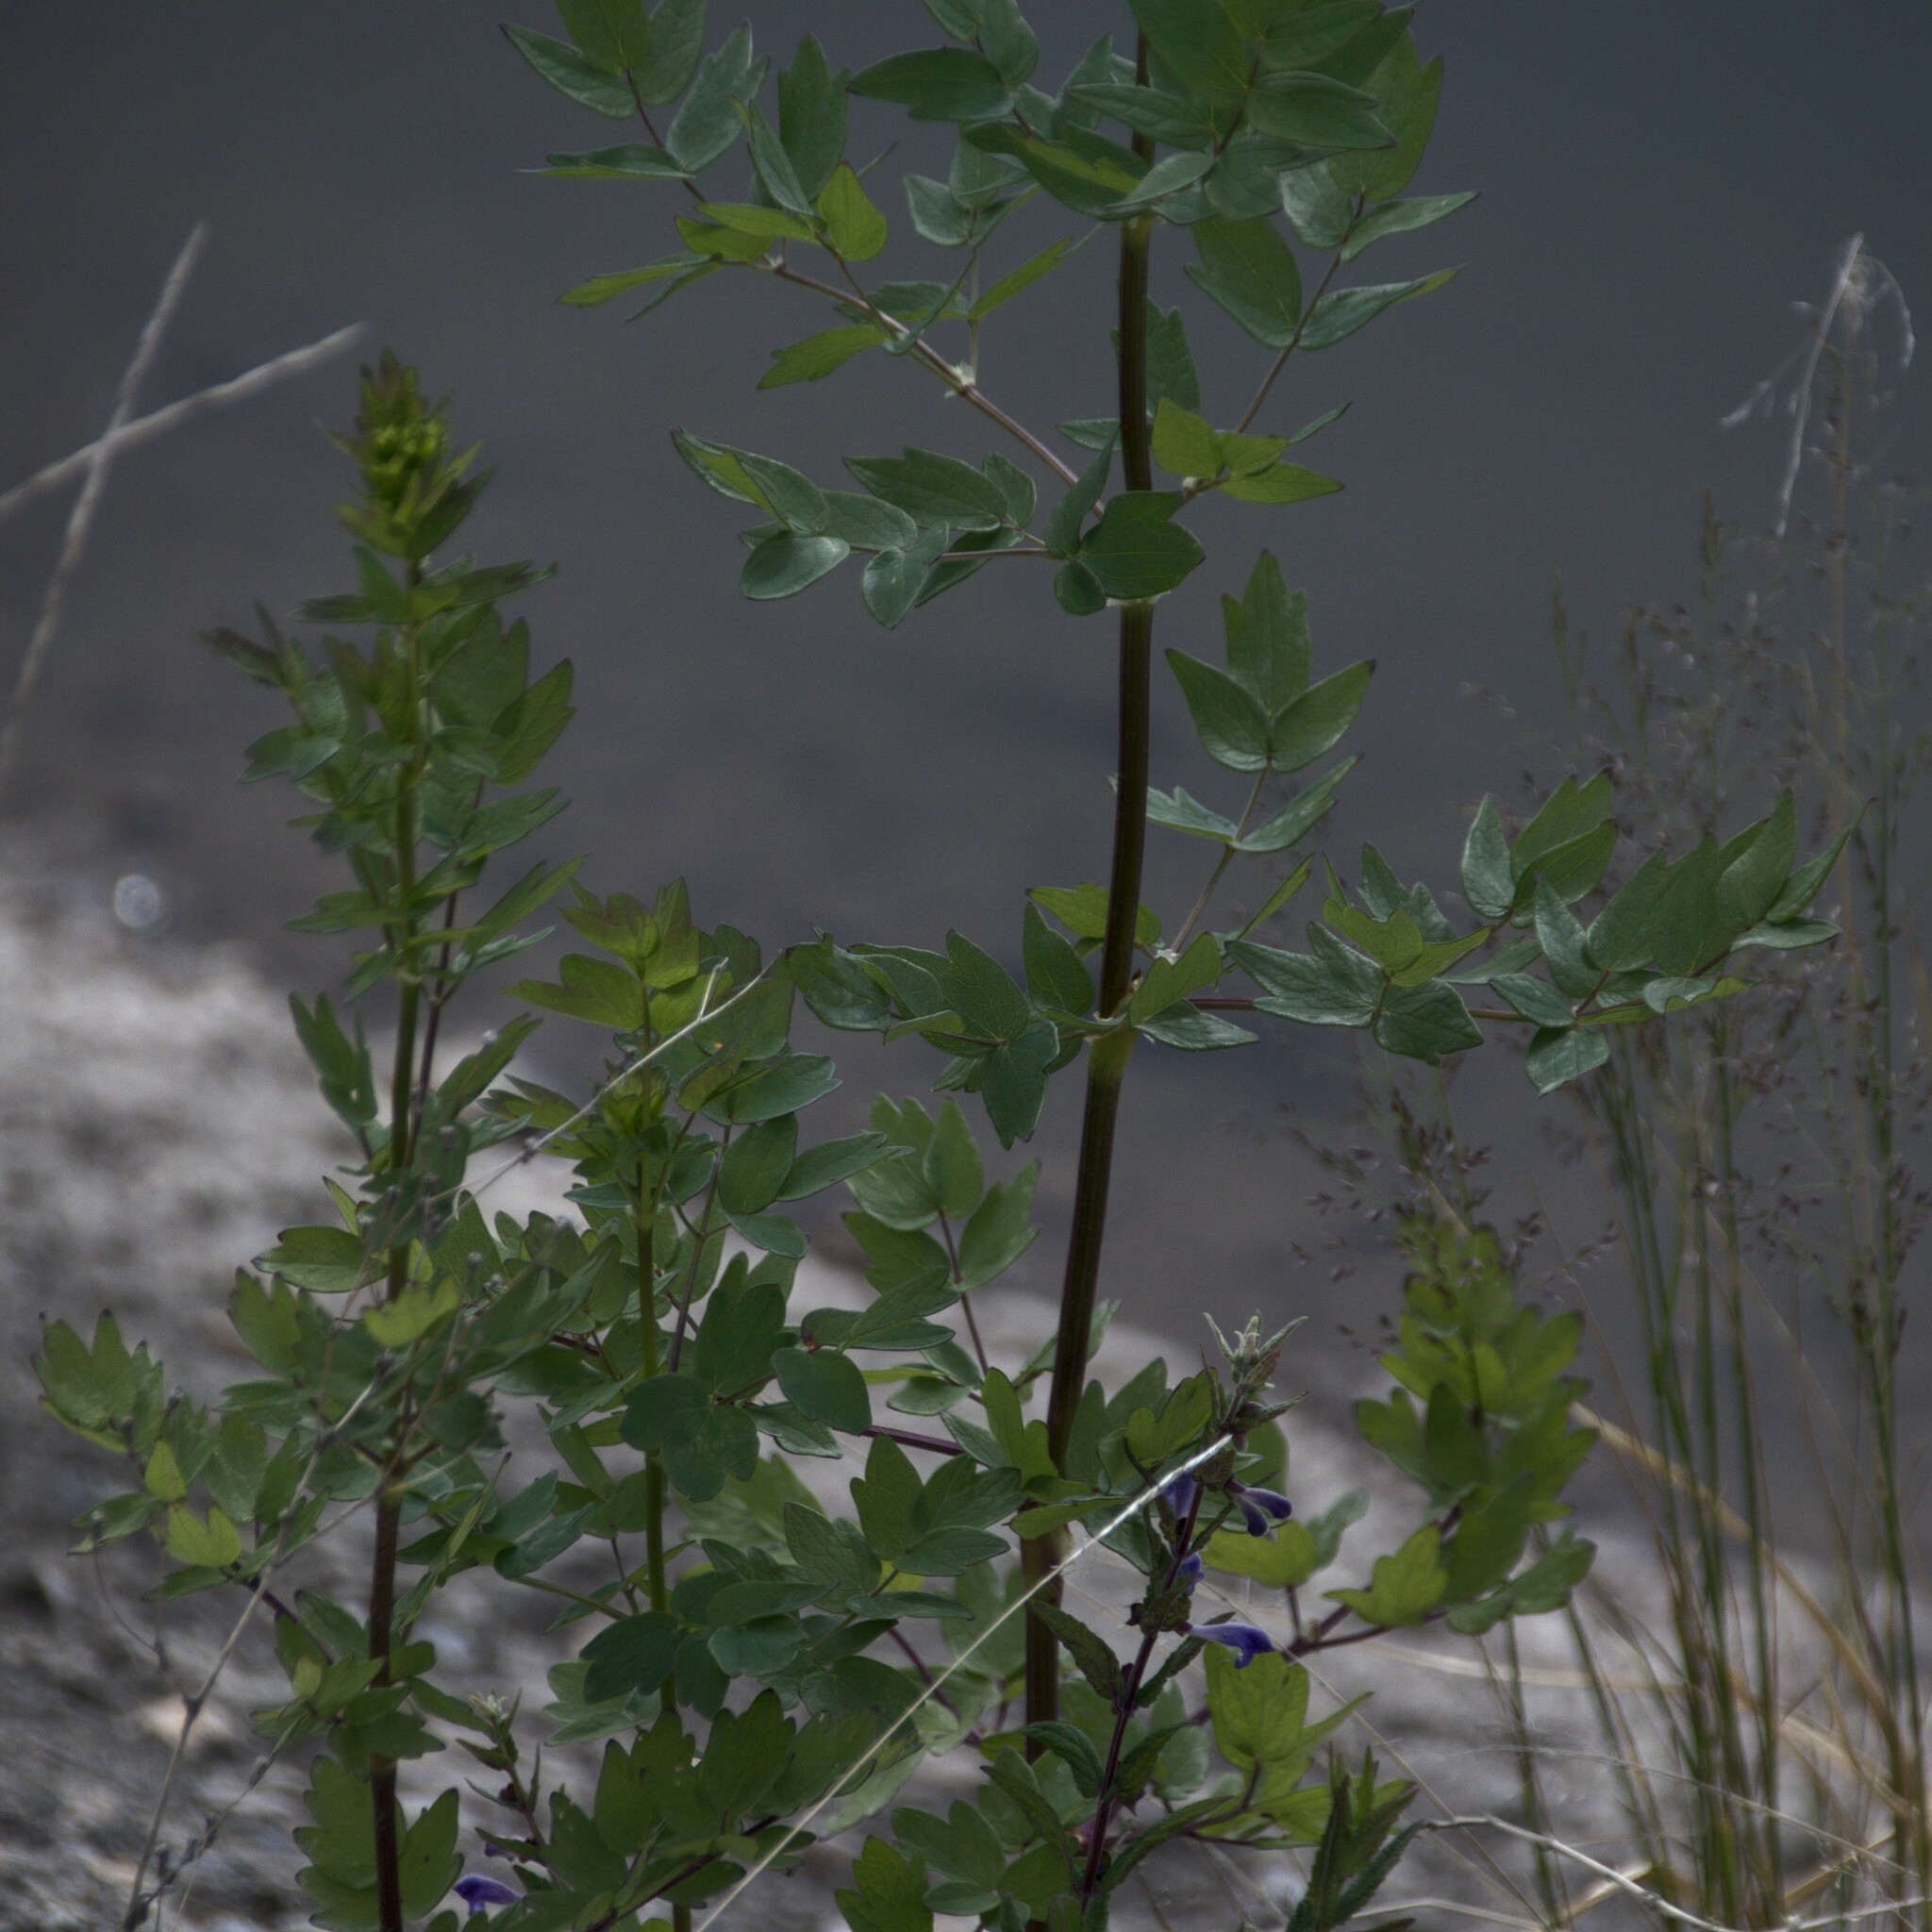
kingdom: Plantae
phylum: Tracheophyta
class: Magnoliopsida
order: Ranunculales
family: Ranunculaceae
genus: Thalictrum
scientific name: Thalictrum flavum
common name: Common meadow-rue
